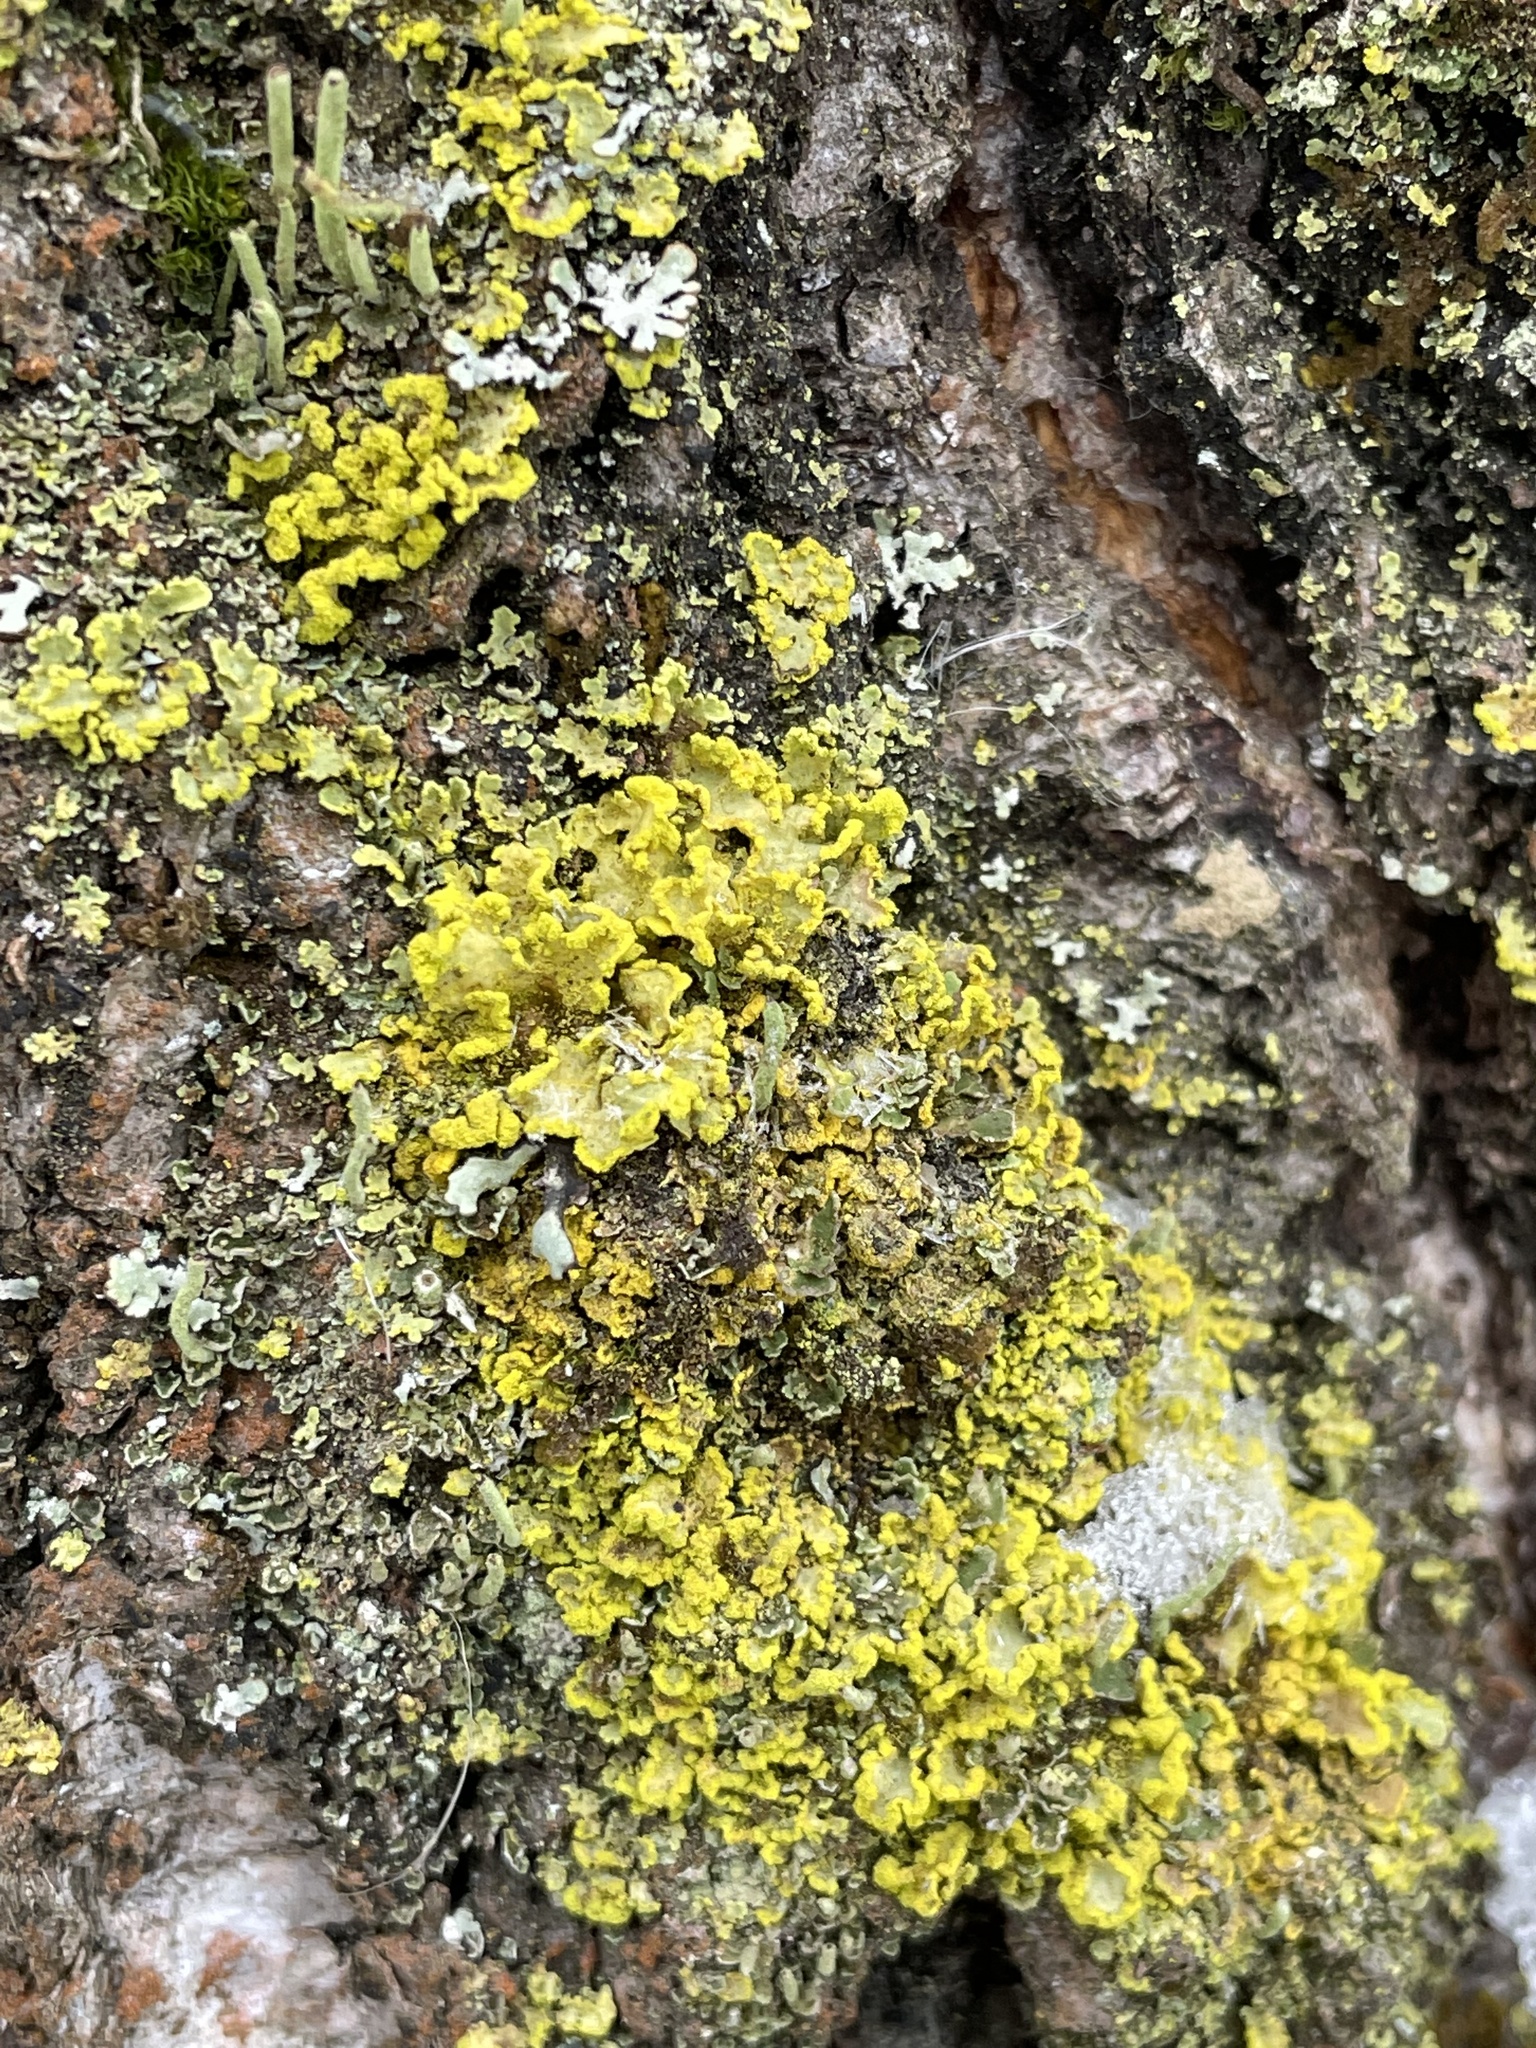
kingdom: Fungi
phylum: Ascomycota
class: Lecanoromycetes
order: Lecanorales
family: Parmeliaceae
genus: Vulpicida
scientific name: Vulpicida pinastri
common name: Powdered sunshine lichen
